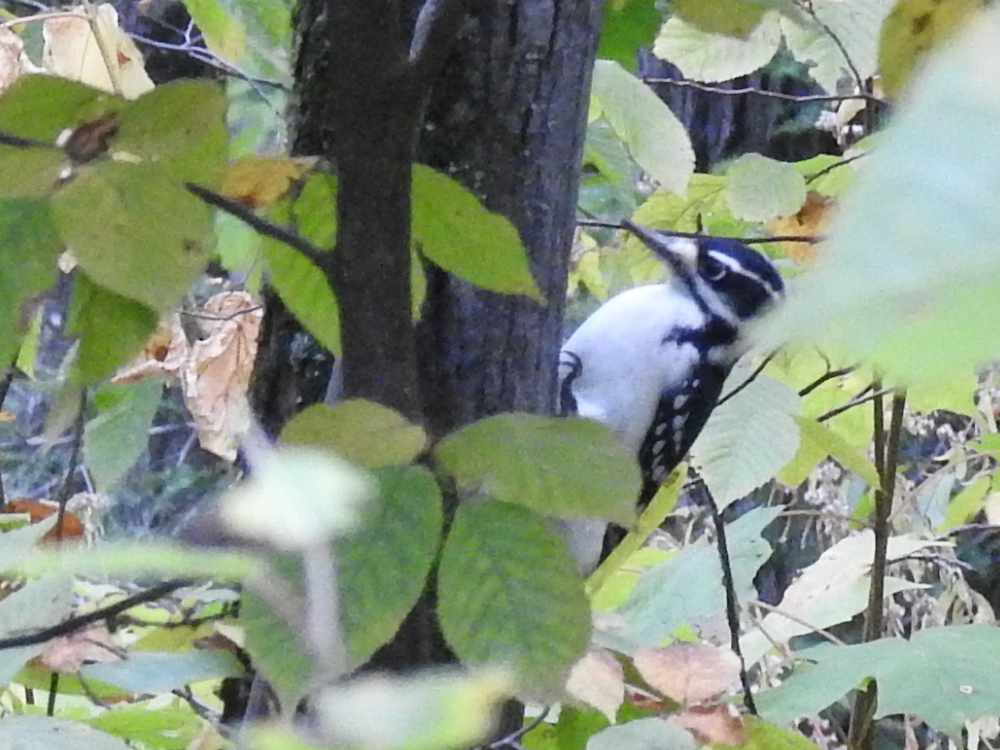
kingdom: Animalia
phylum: Chordata
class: Aves
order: Piciformes
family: Picidae
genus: Leuconotopicus
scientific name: Leuconotopicus villosus
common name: Hairy woodpecker
